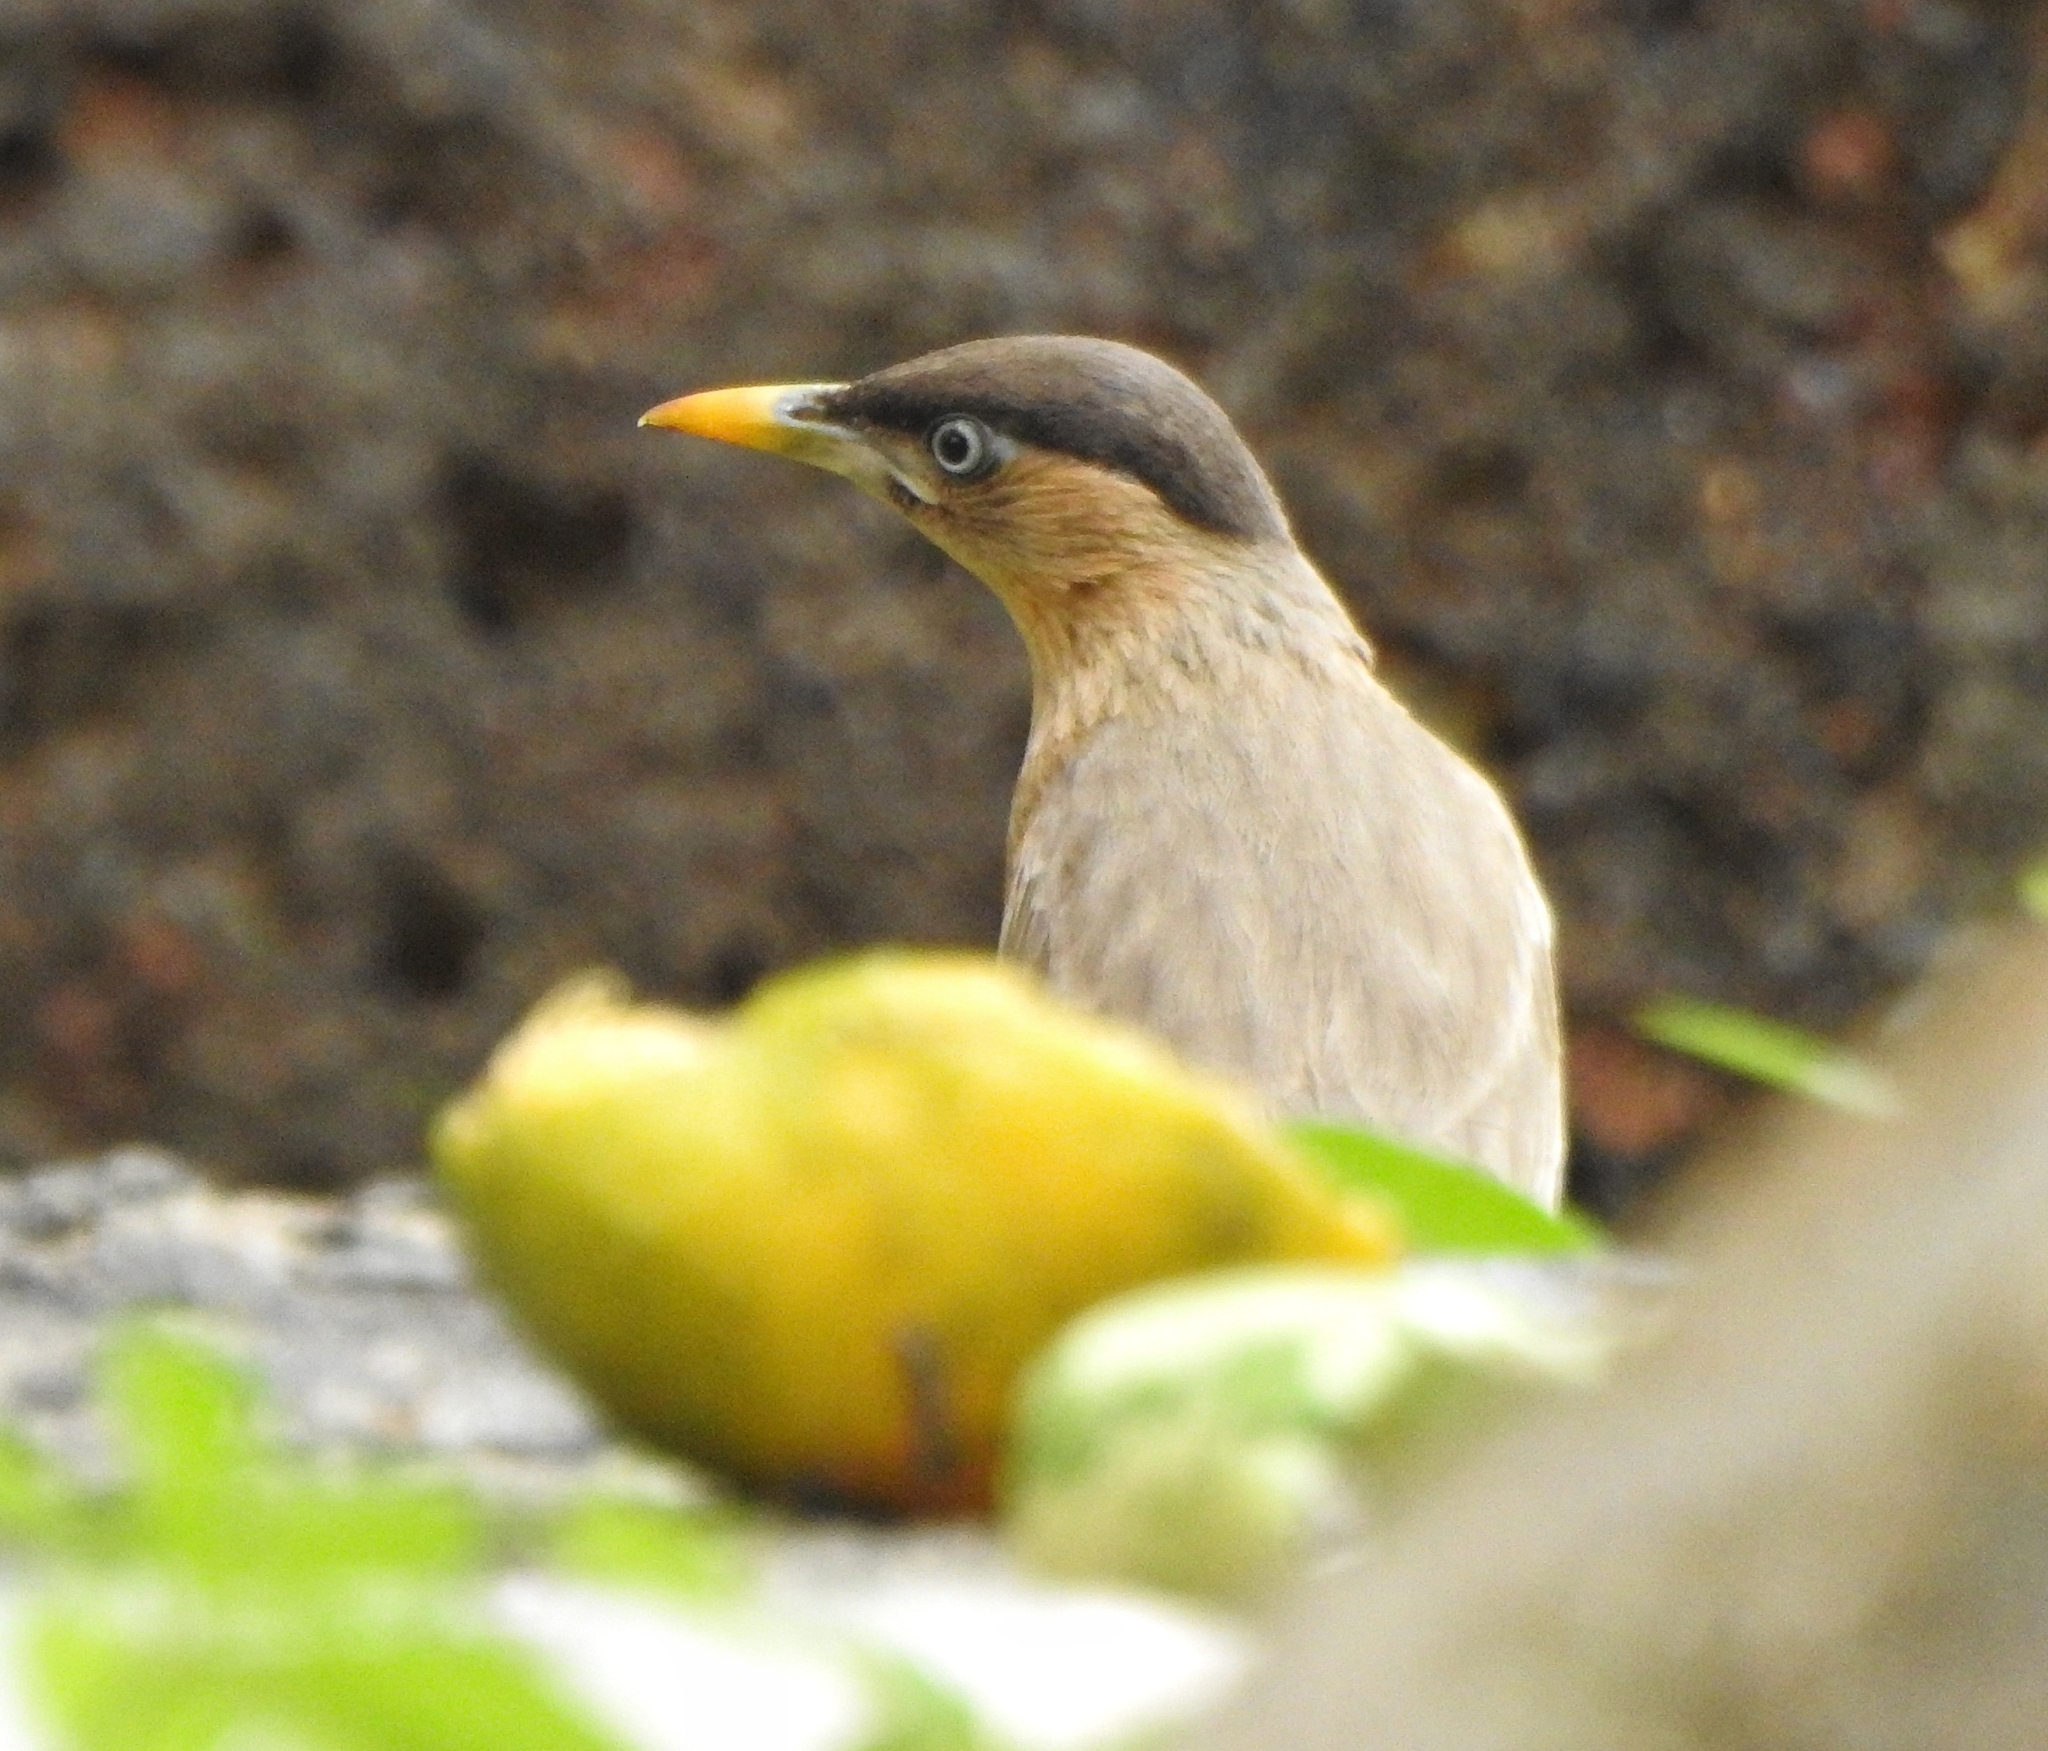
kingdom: Animalia
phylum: Chordata
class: Aves
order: Passeriformes
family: Sturnidae
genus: Sturnia
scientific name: Sturnia pagodarum
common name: Brahminy starling
